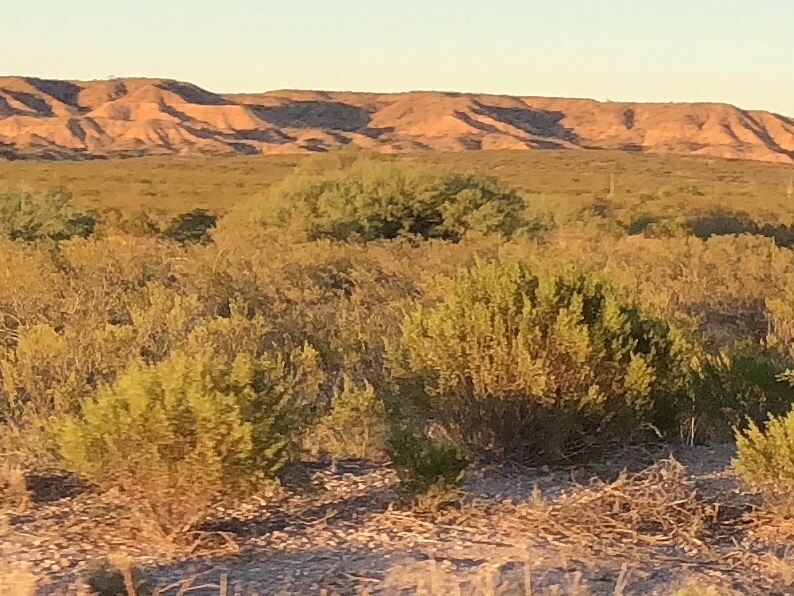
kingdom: Plantae
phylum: Tracheophyta
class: Magnoliopsida
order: Zygophyllales
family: Zygophyllaceae
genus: Larrea
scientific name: Larrea tridentata
